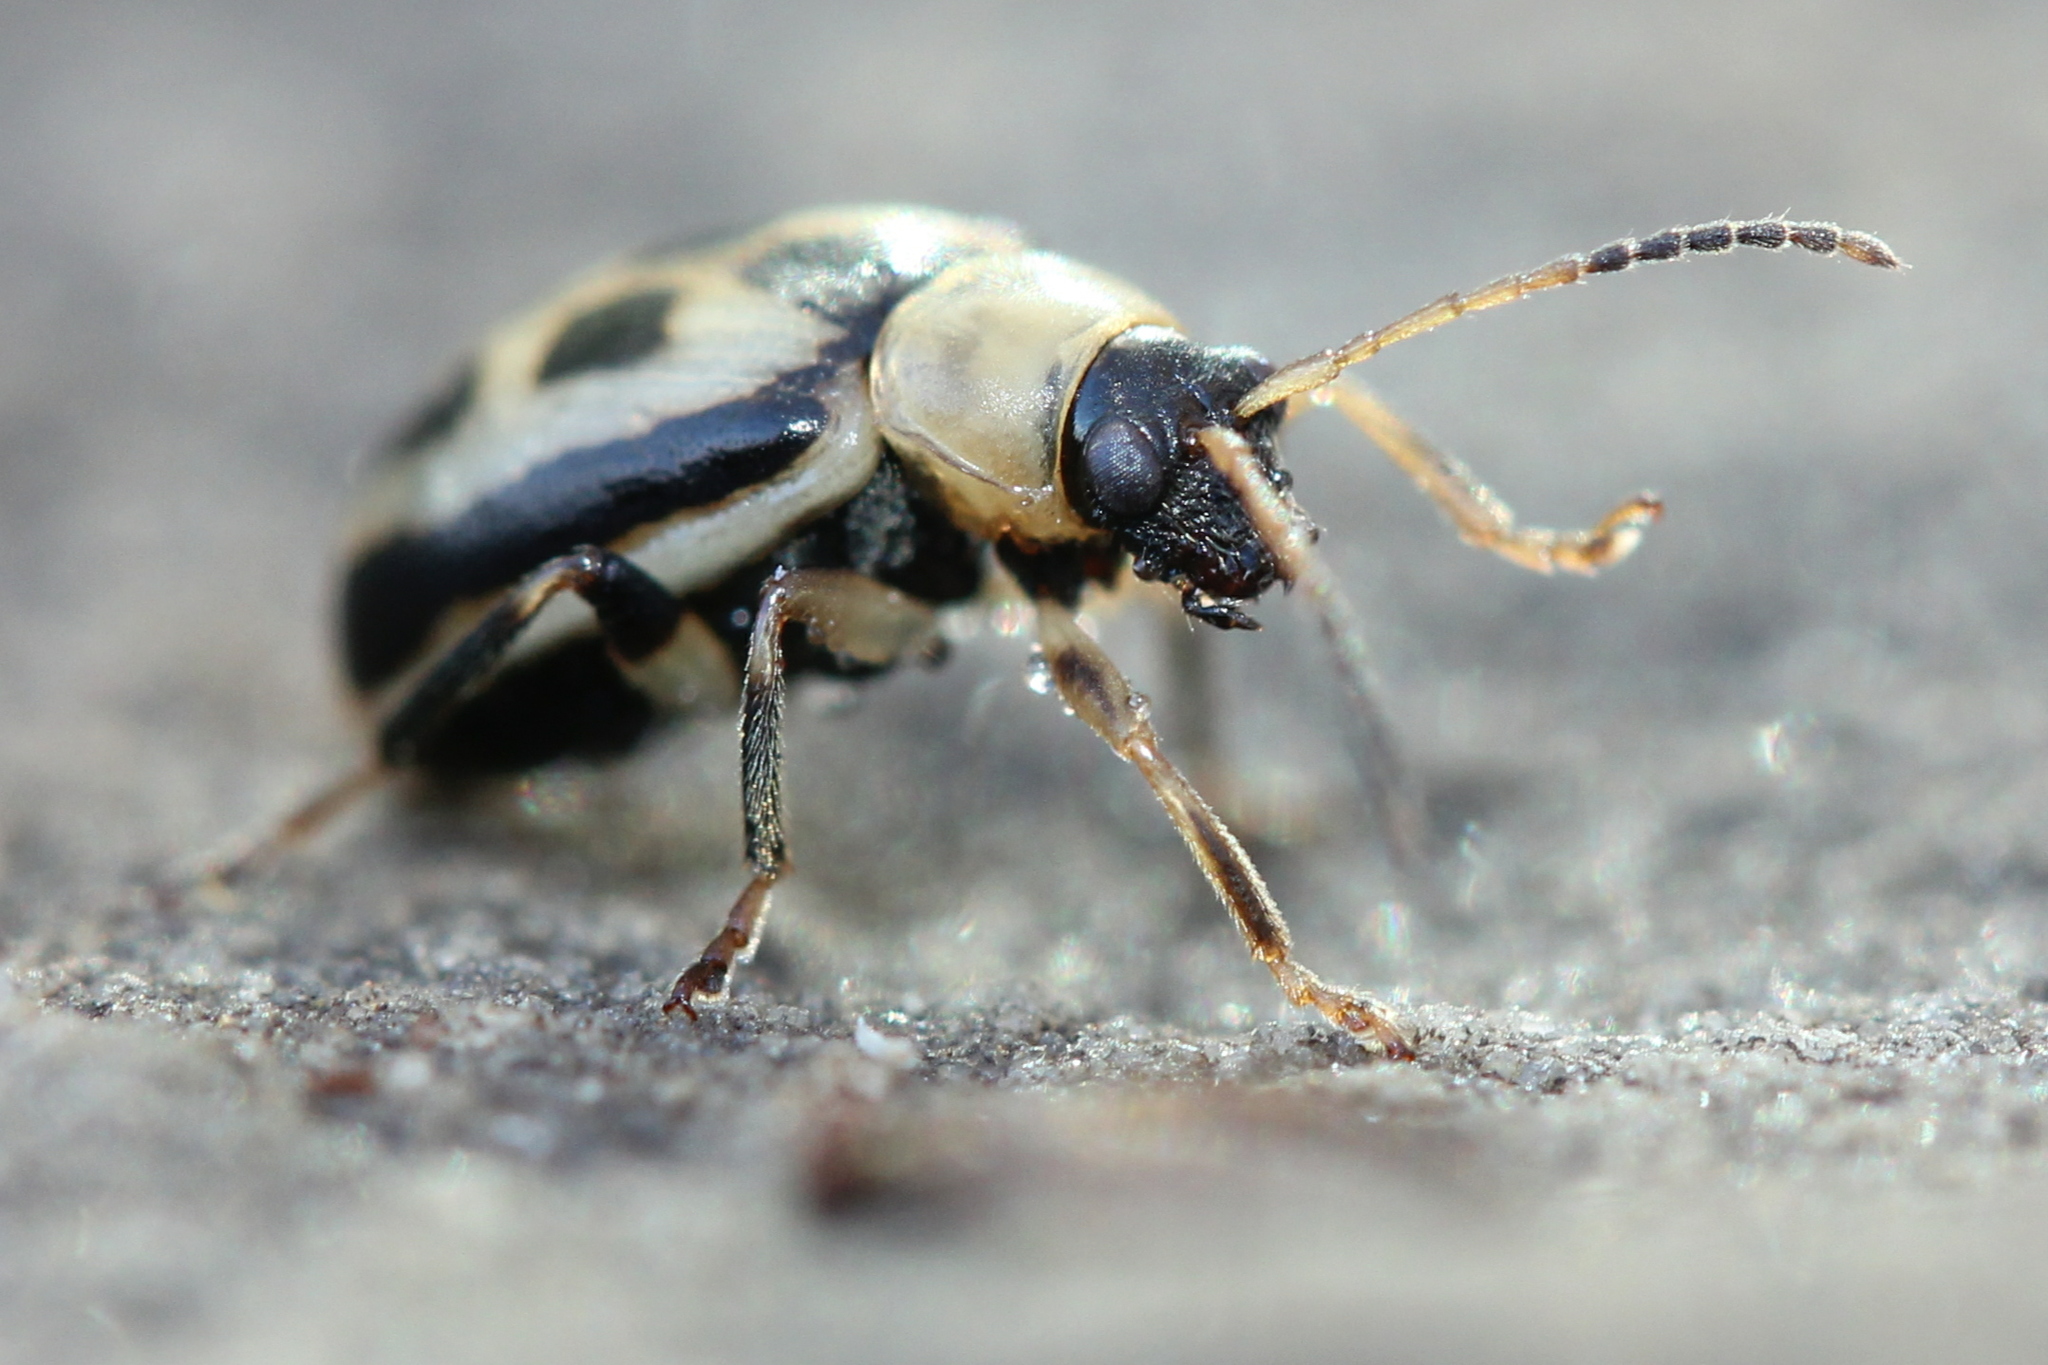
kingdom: Animalia
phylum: Arthropoda
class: Insecta
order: Coleoptera
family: Chrysomelidae
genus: Cerotoma
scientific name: Cerotoma trifurcata
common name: Bean leaf beetle
